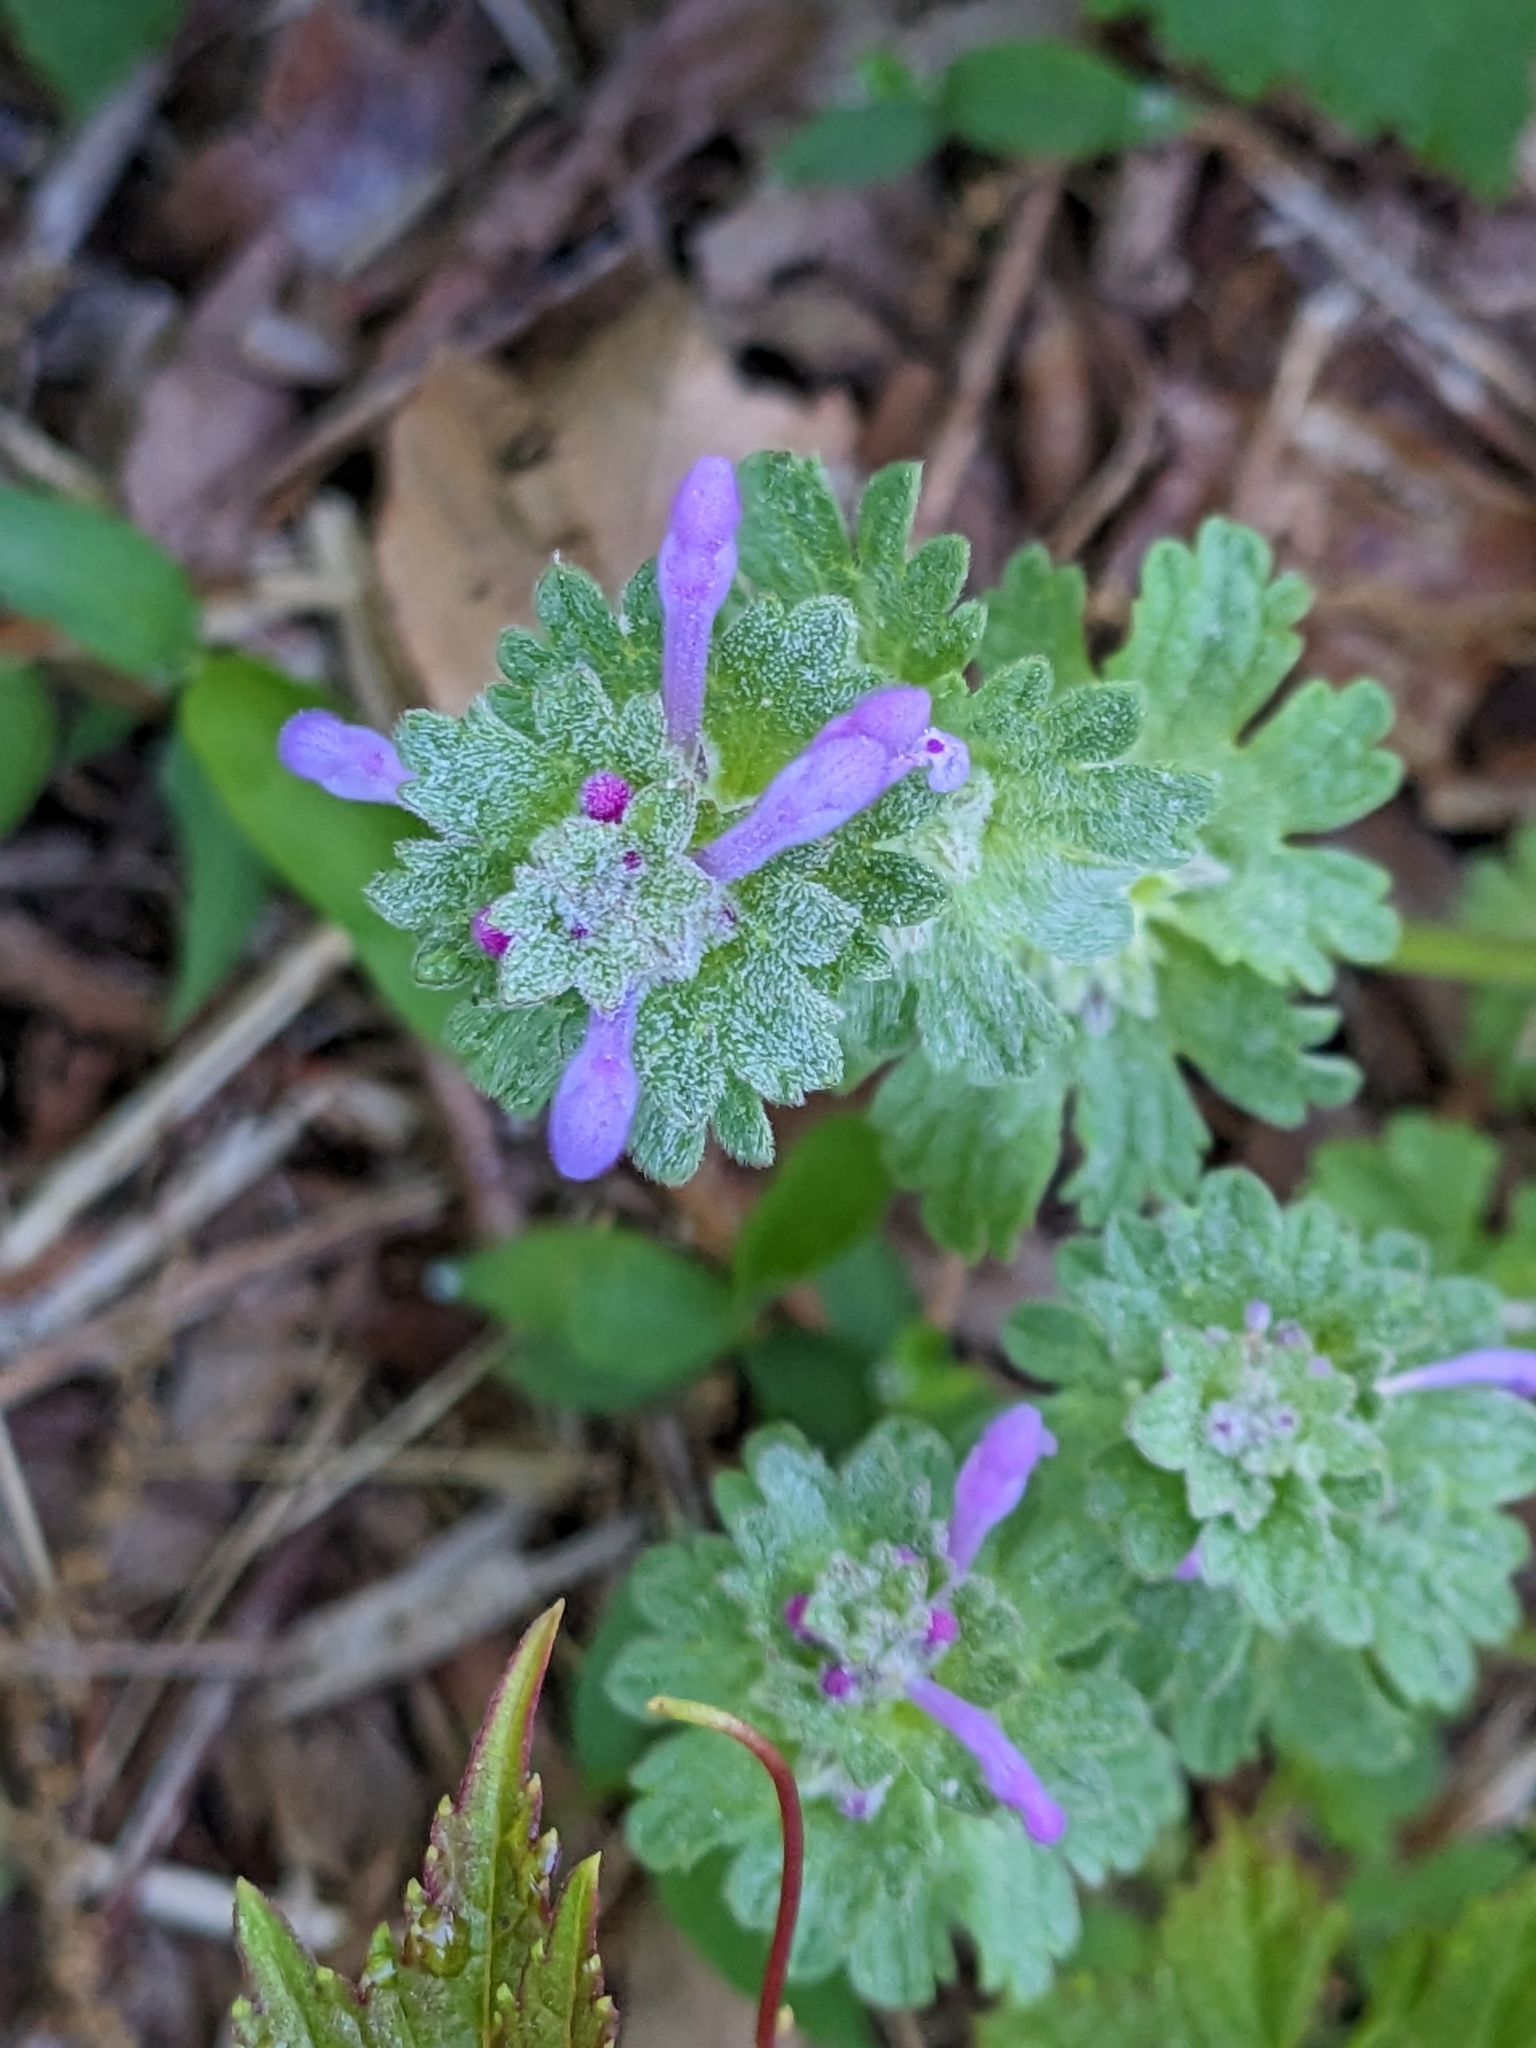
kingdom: Plantae
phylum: Tracheophyta
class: Magnoliopsida
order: Lamiales
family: Lamiaceae
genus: Lamium
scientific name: Lamium amplexicaule
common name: Henbit dead-nettle
